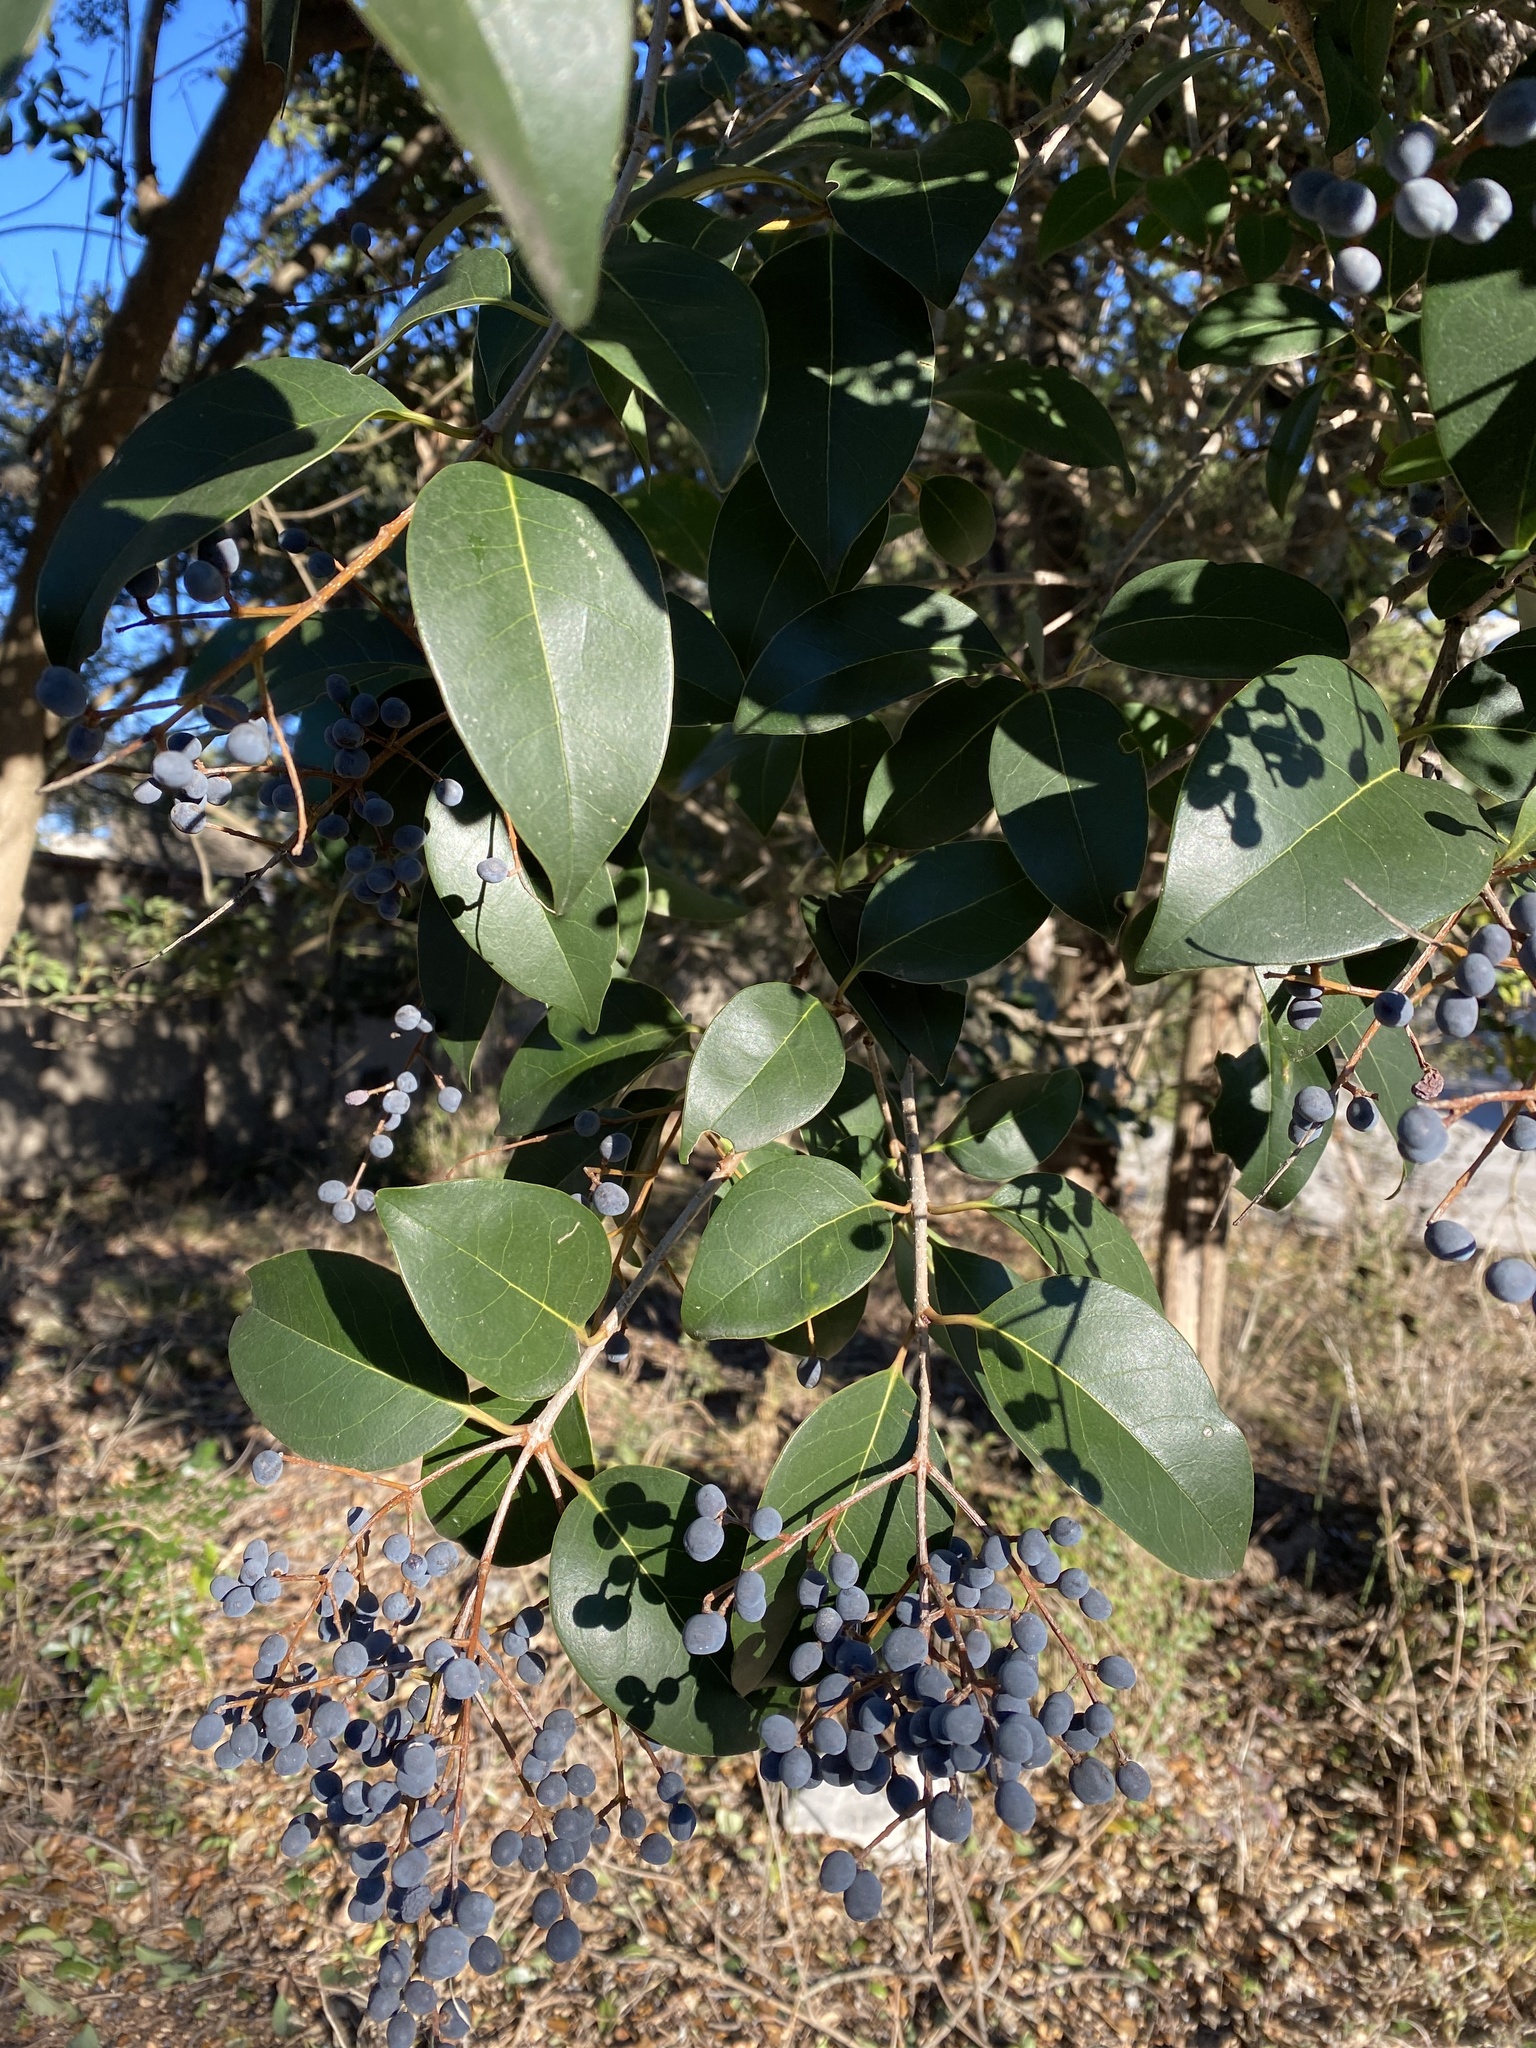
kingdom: Plantae
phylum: Tracheophyta
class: Magnoliopsida
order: Lamiales
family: Oleaceae
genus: Ligustrum
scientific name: Ligustrum lucidum
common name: Glossy privet
